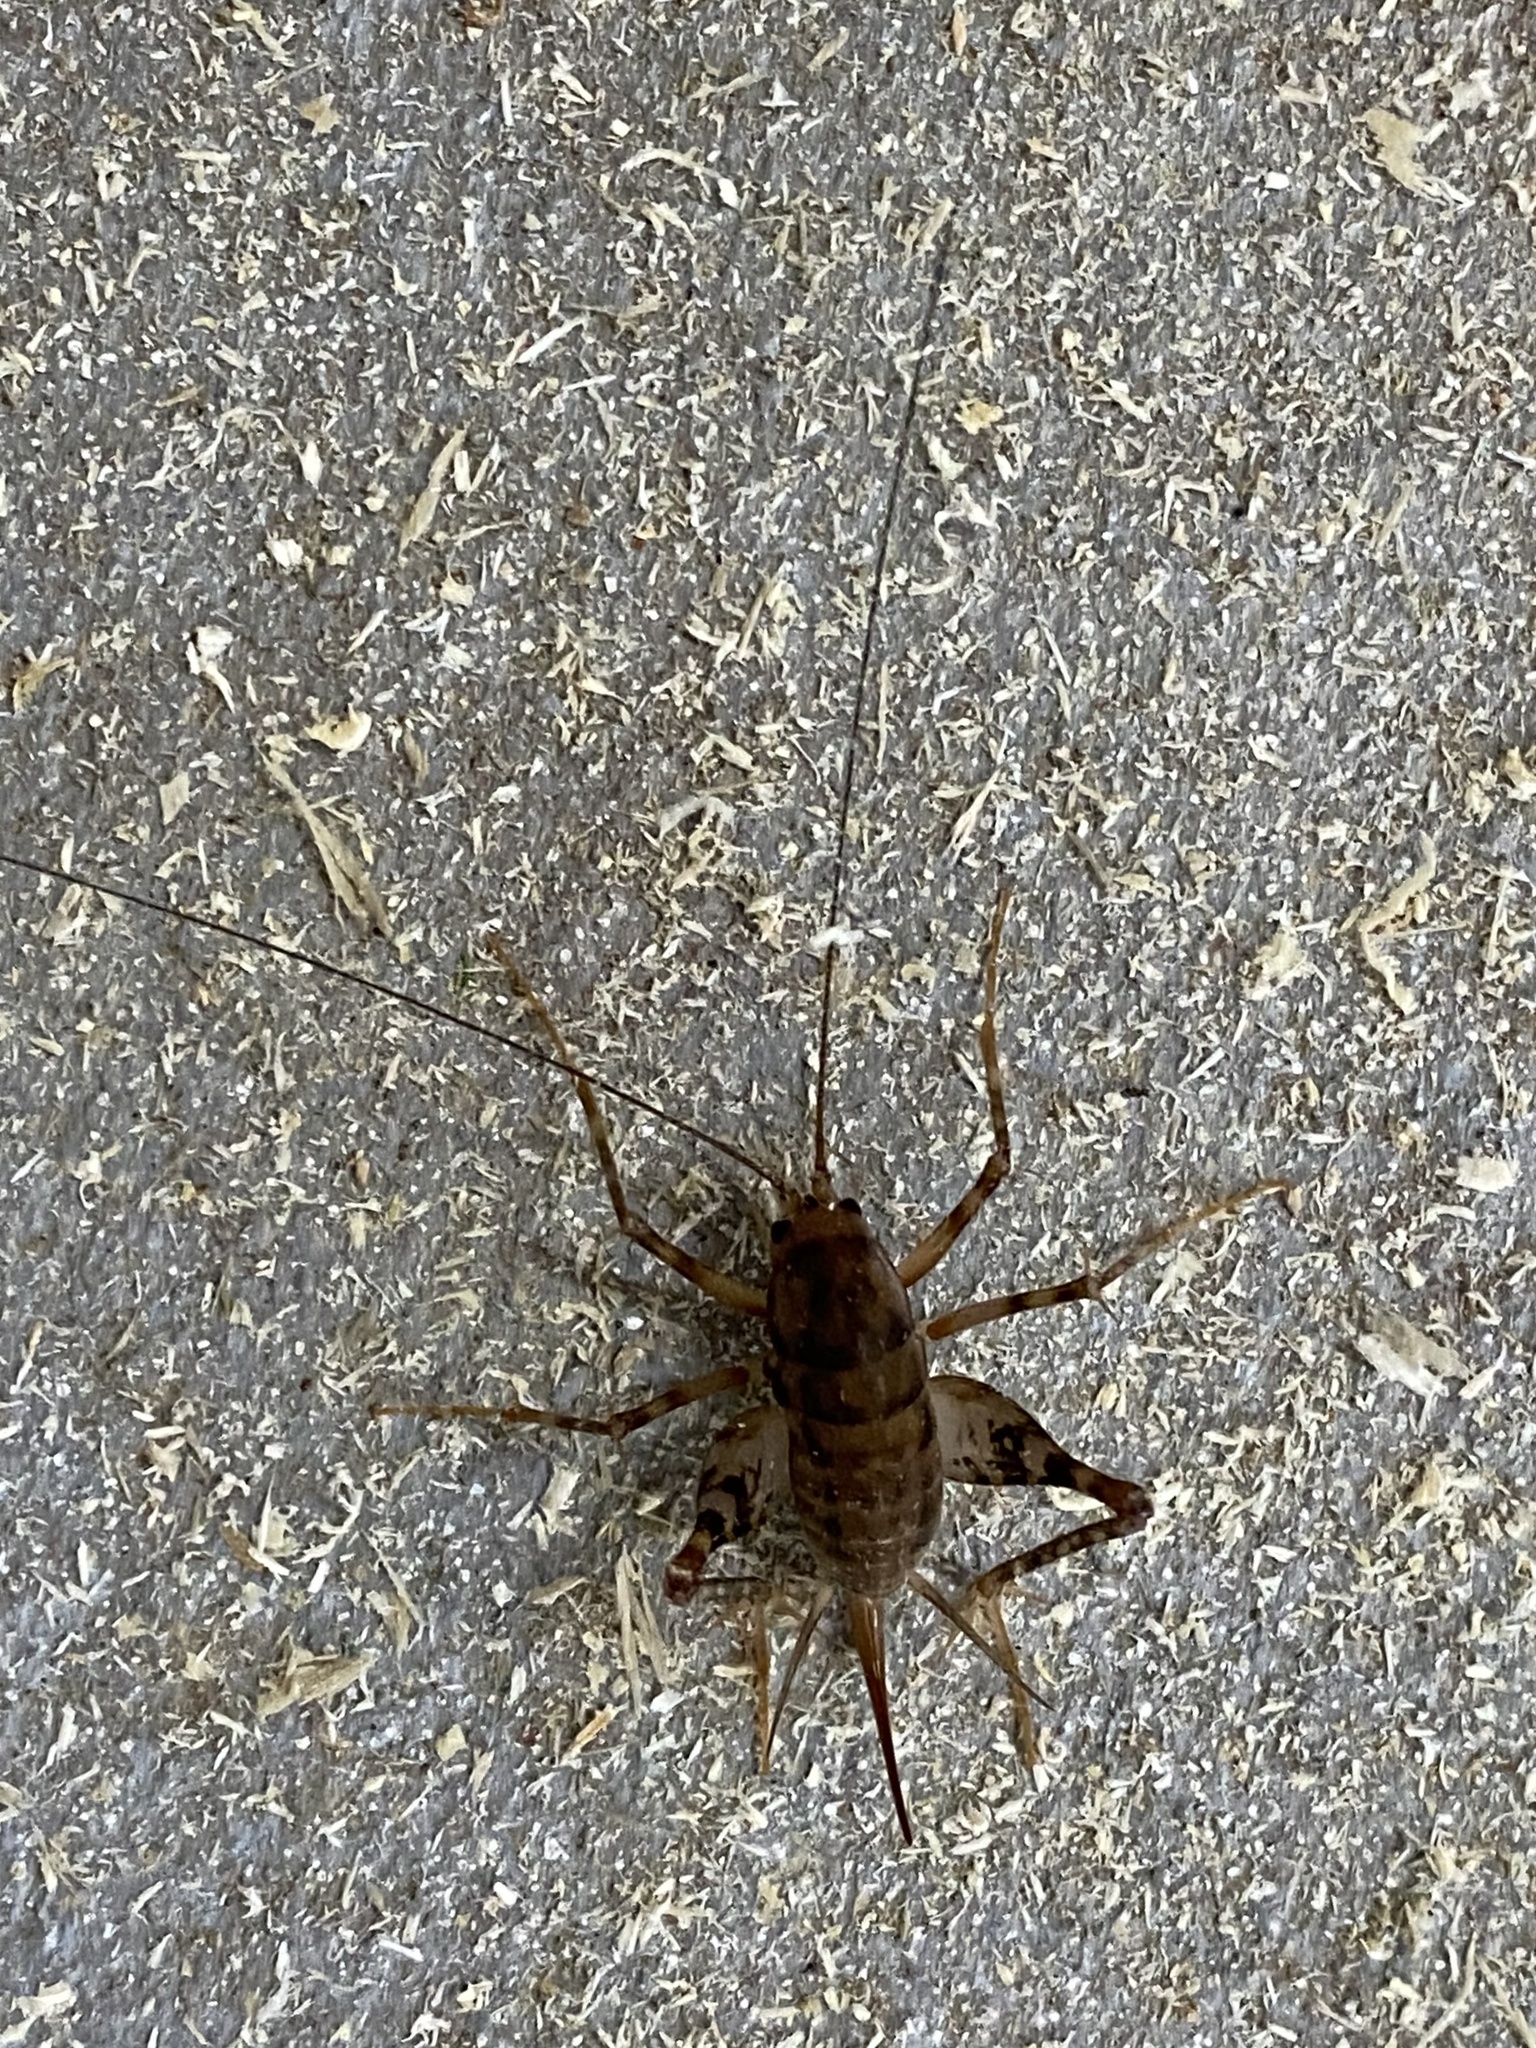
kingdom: Animalia
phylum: Arthropoda
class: Insecta
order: Orthoptera
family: Rhaphidophoridae
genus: Tachycines
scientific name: Tachycines asynamorus
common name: Greenhouse camel cricket
